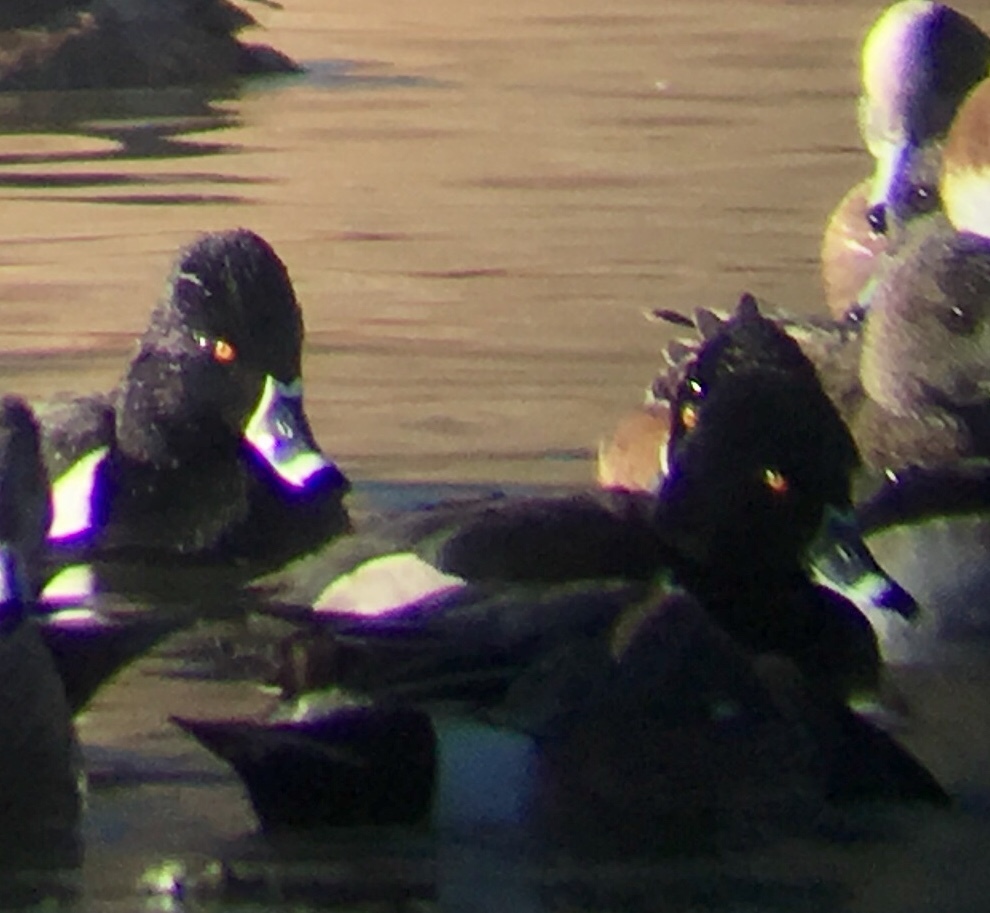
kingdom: Animalia
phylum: Chordata
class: Aves
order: Anseriformes
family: Anatidae
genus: Aythya
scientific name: Aythya collaris
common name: Ring-necked duck
